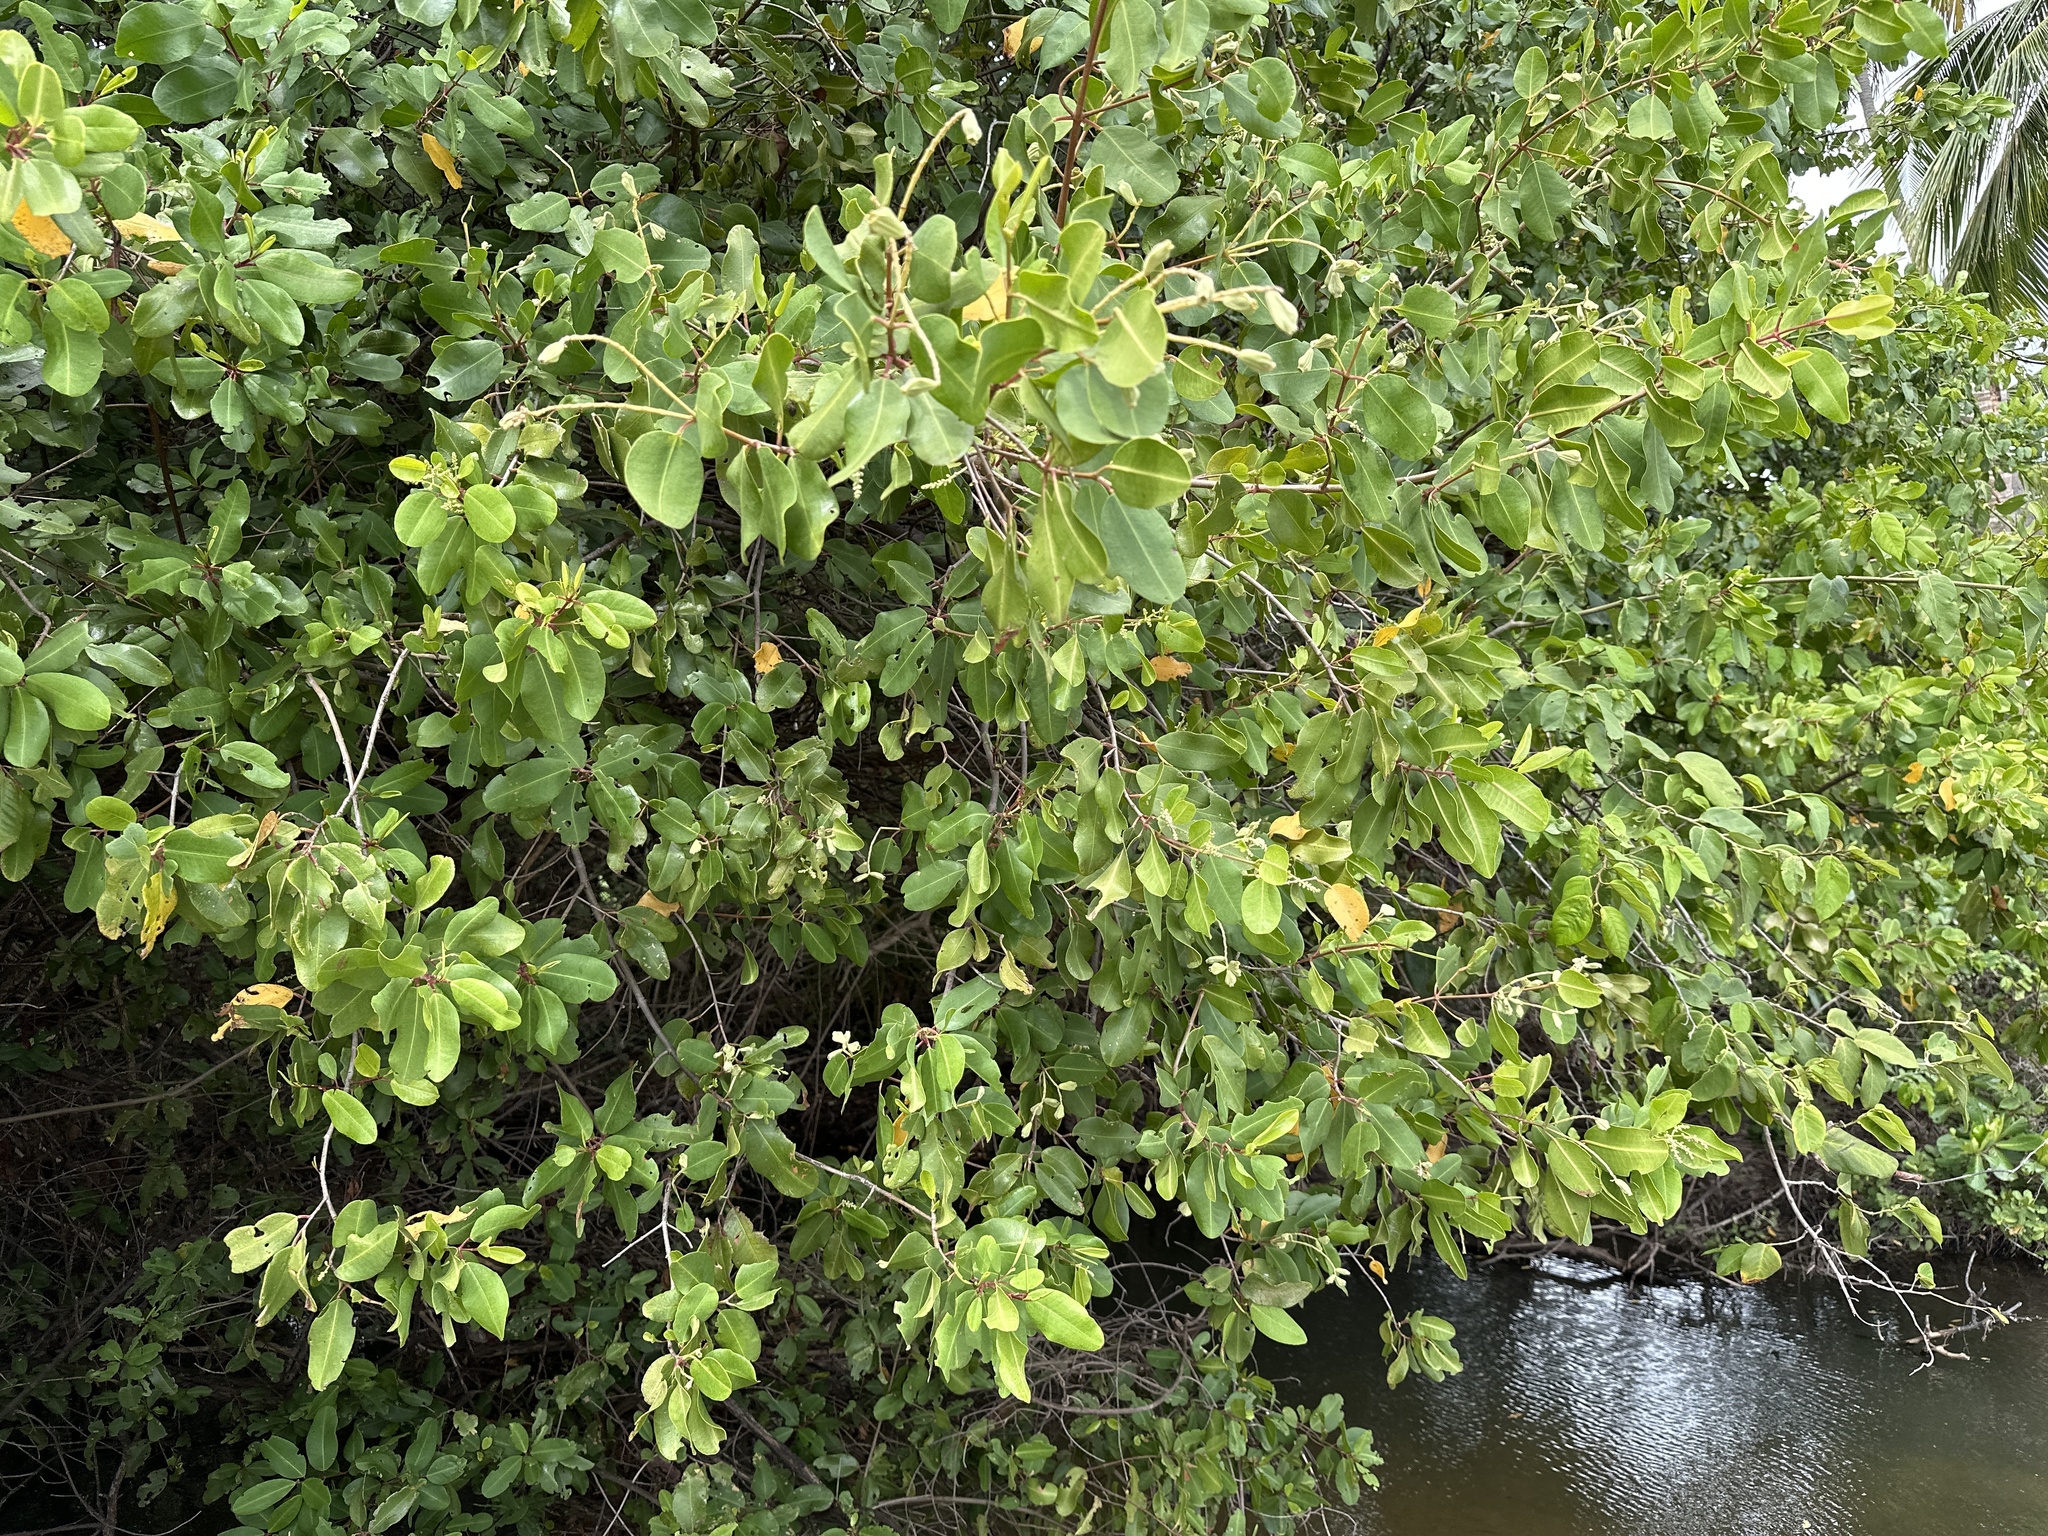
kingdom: Plantae
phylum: Tracheophyta
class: Magnoliopsida
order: Myrtales
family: Combretaceae
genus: Laguncularia
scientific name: Laguncularia racemosa
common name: White mangrove
